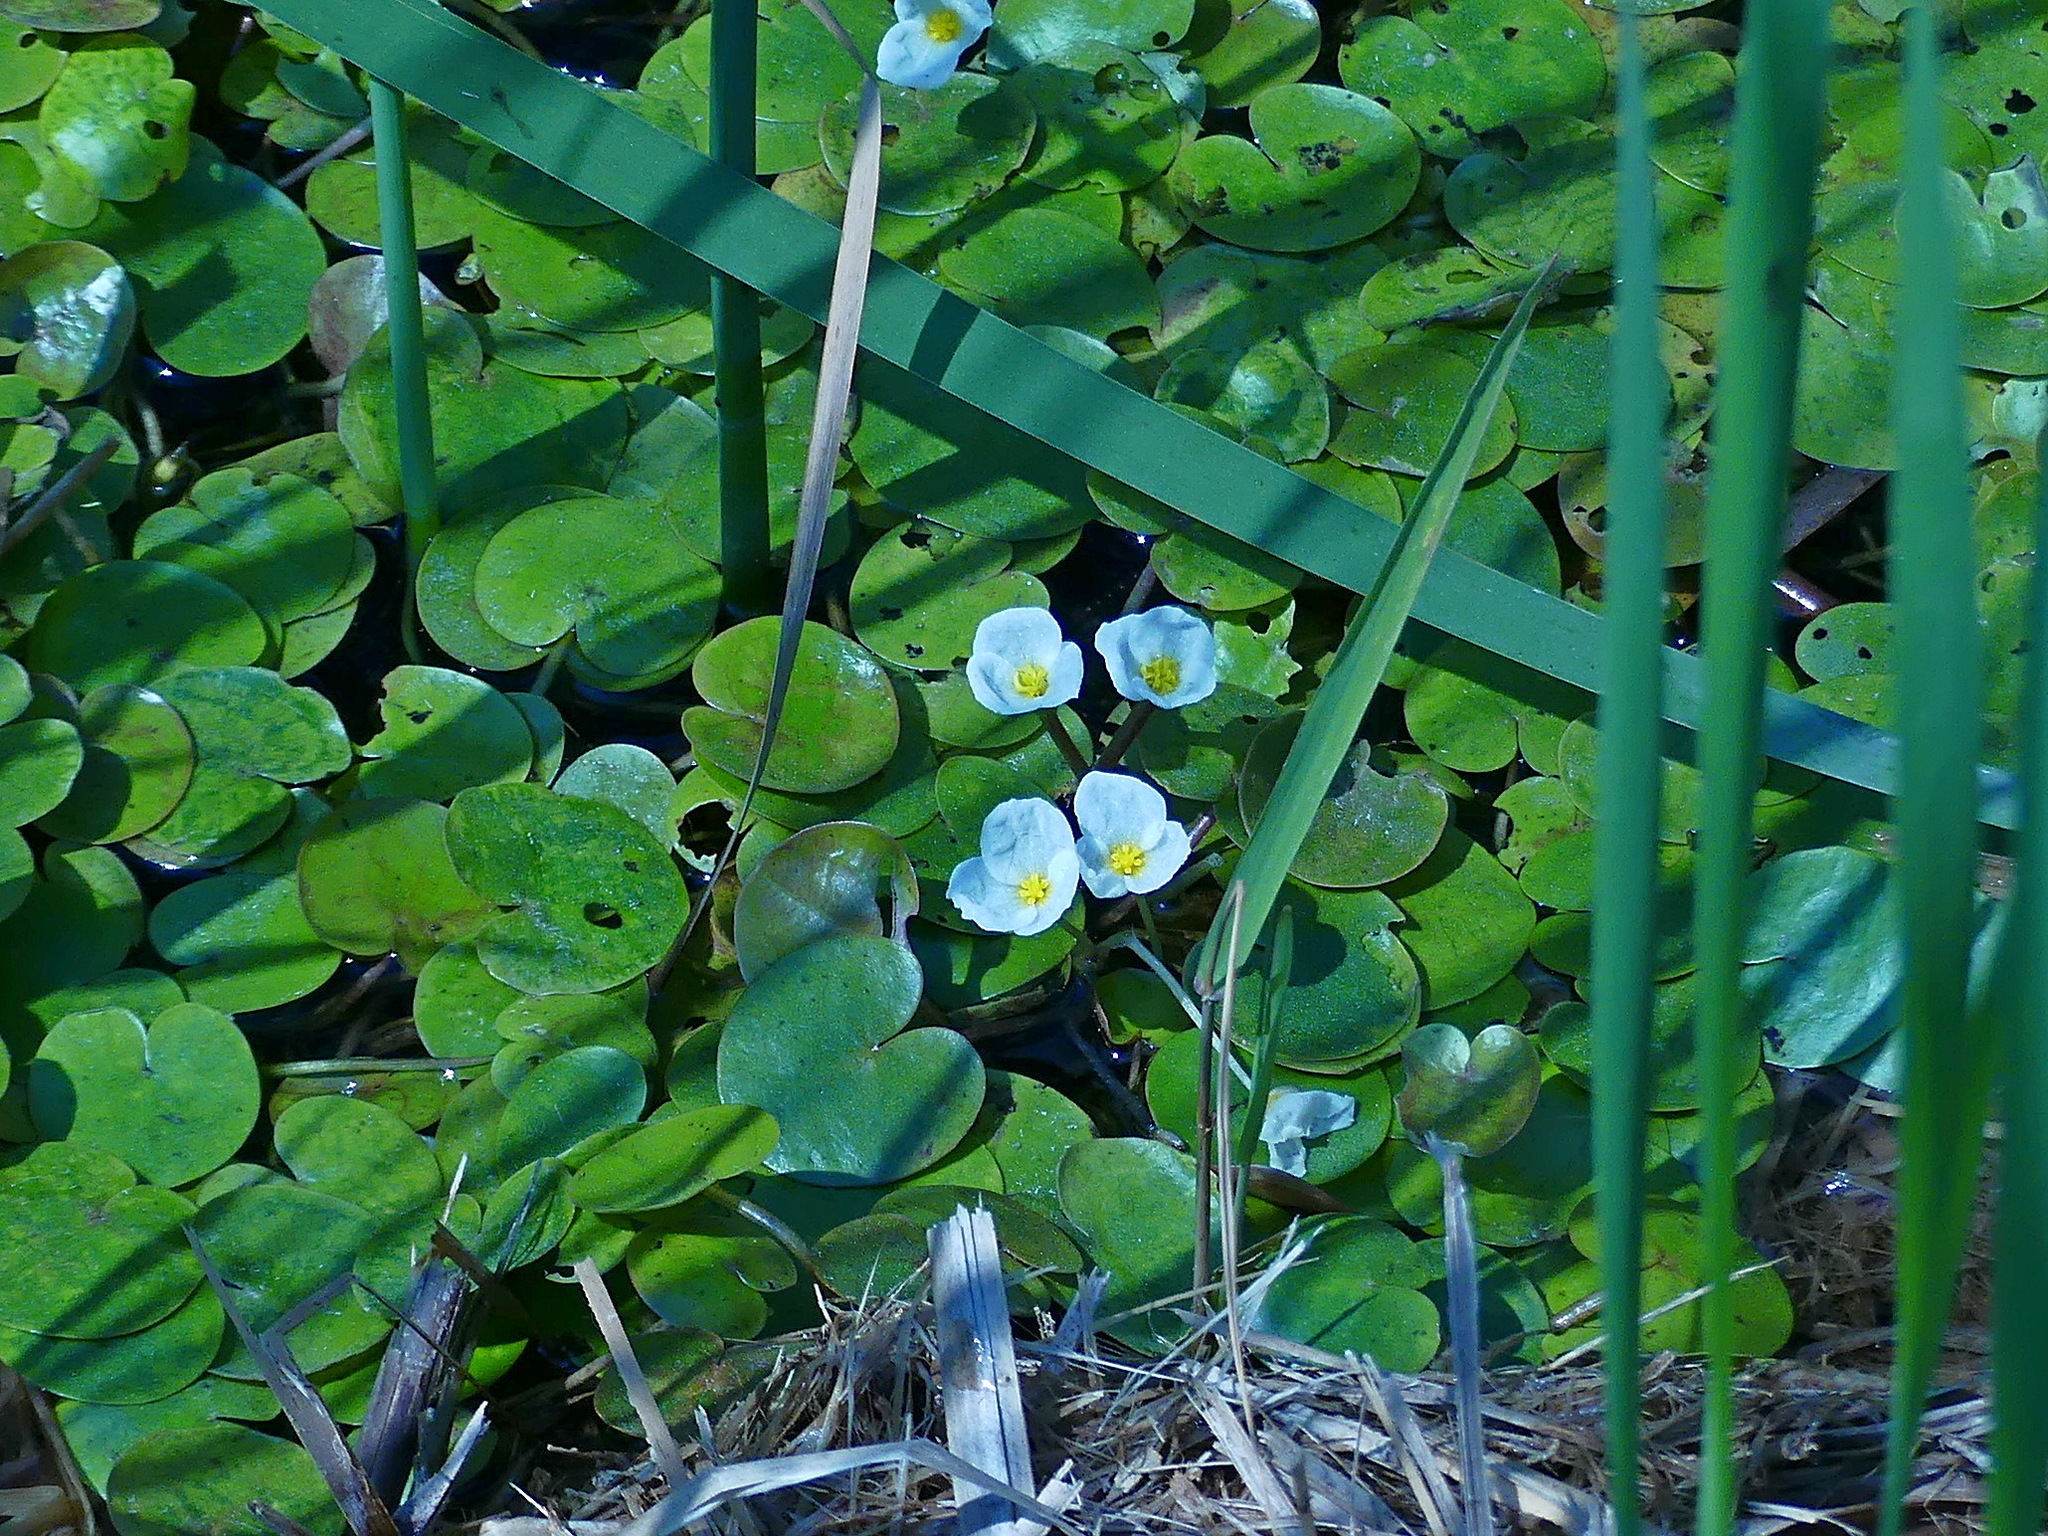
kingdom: Plantae
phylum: Tracheophyta
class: Liliopsida
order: Alismatales
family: Hydrocharitaceae
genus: Hydrocharis
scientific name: Hydrocharis morsus-ranae
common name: Frogbit
